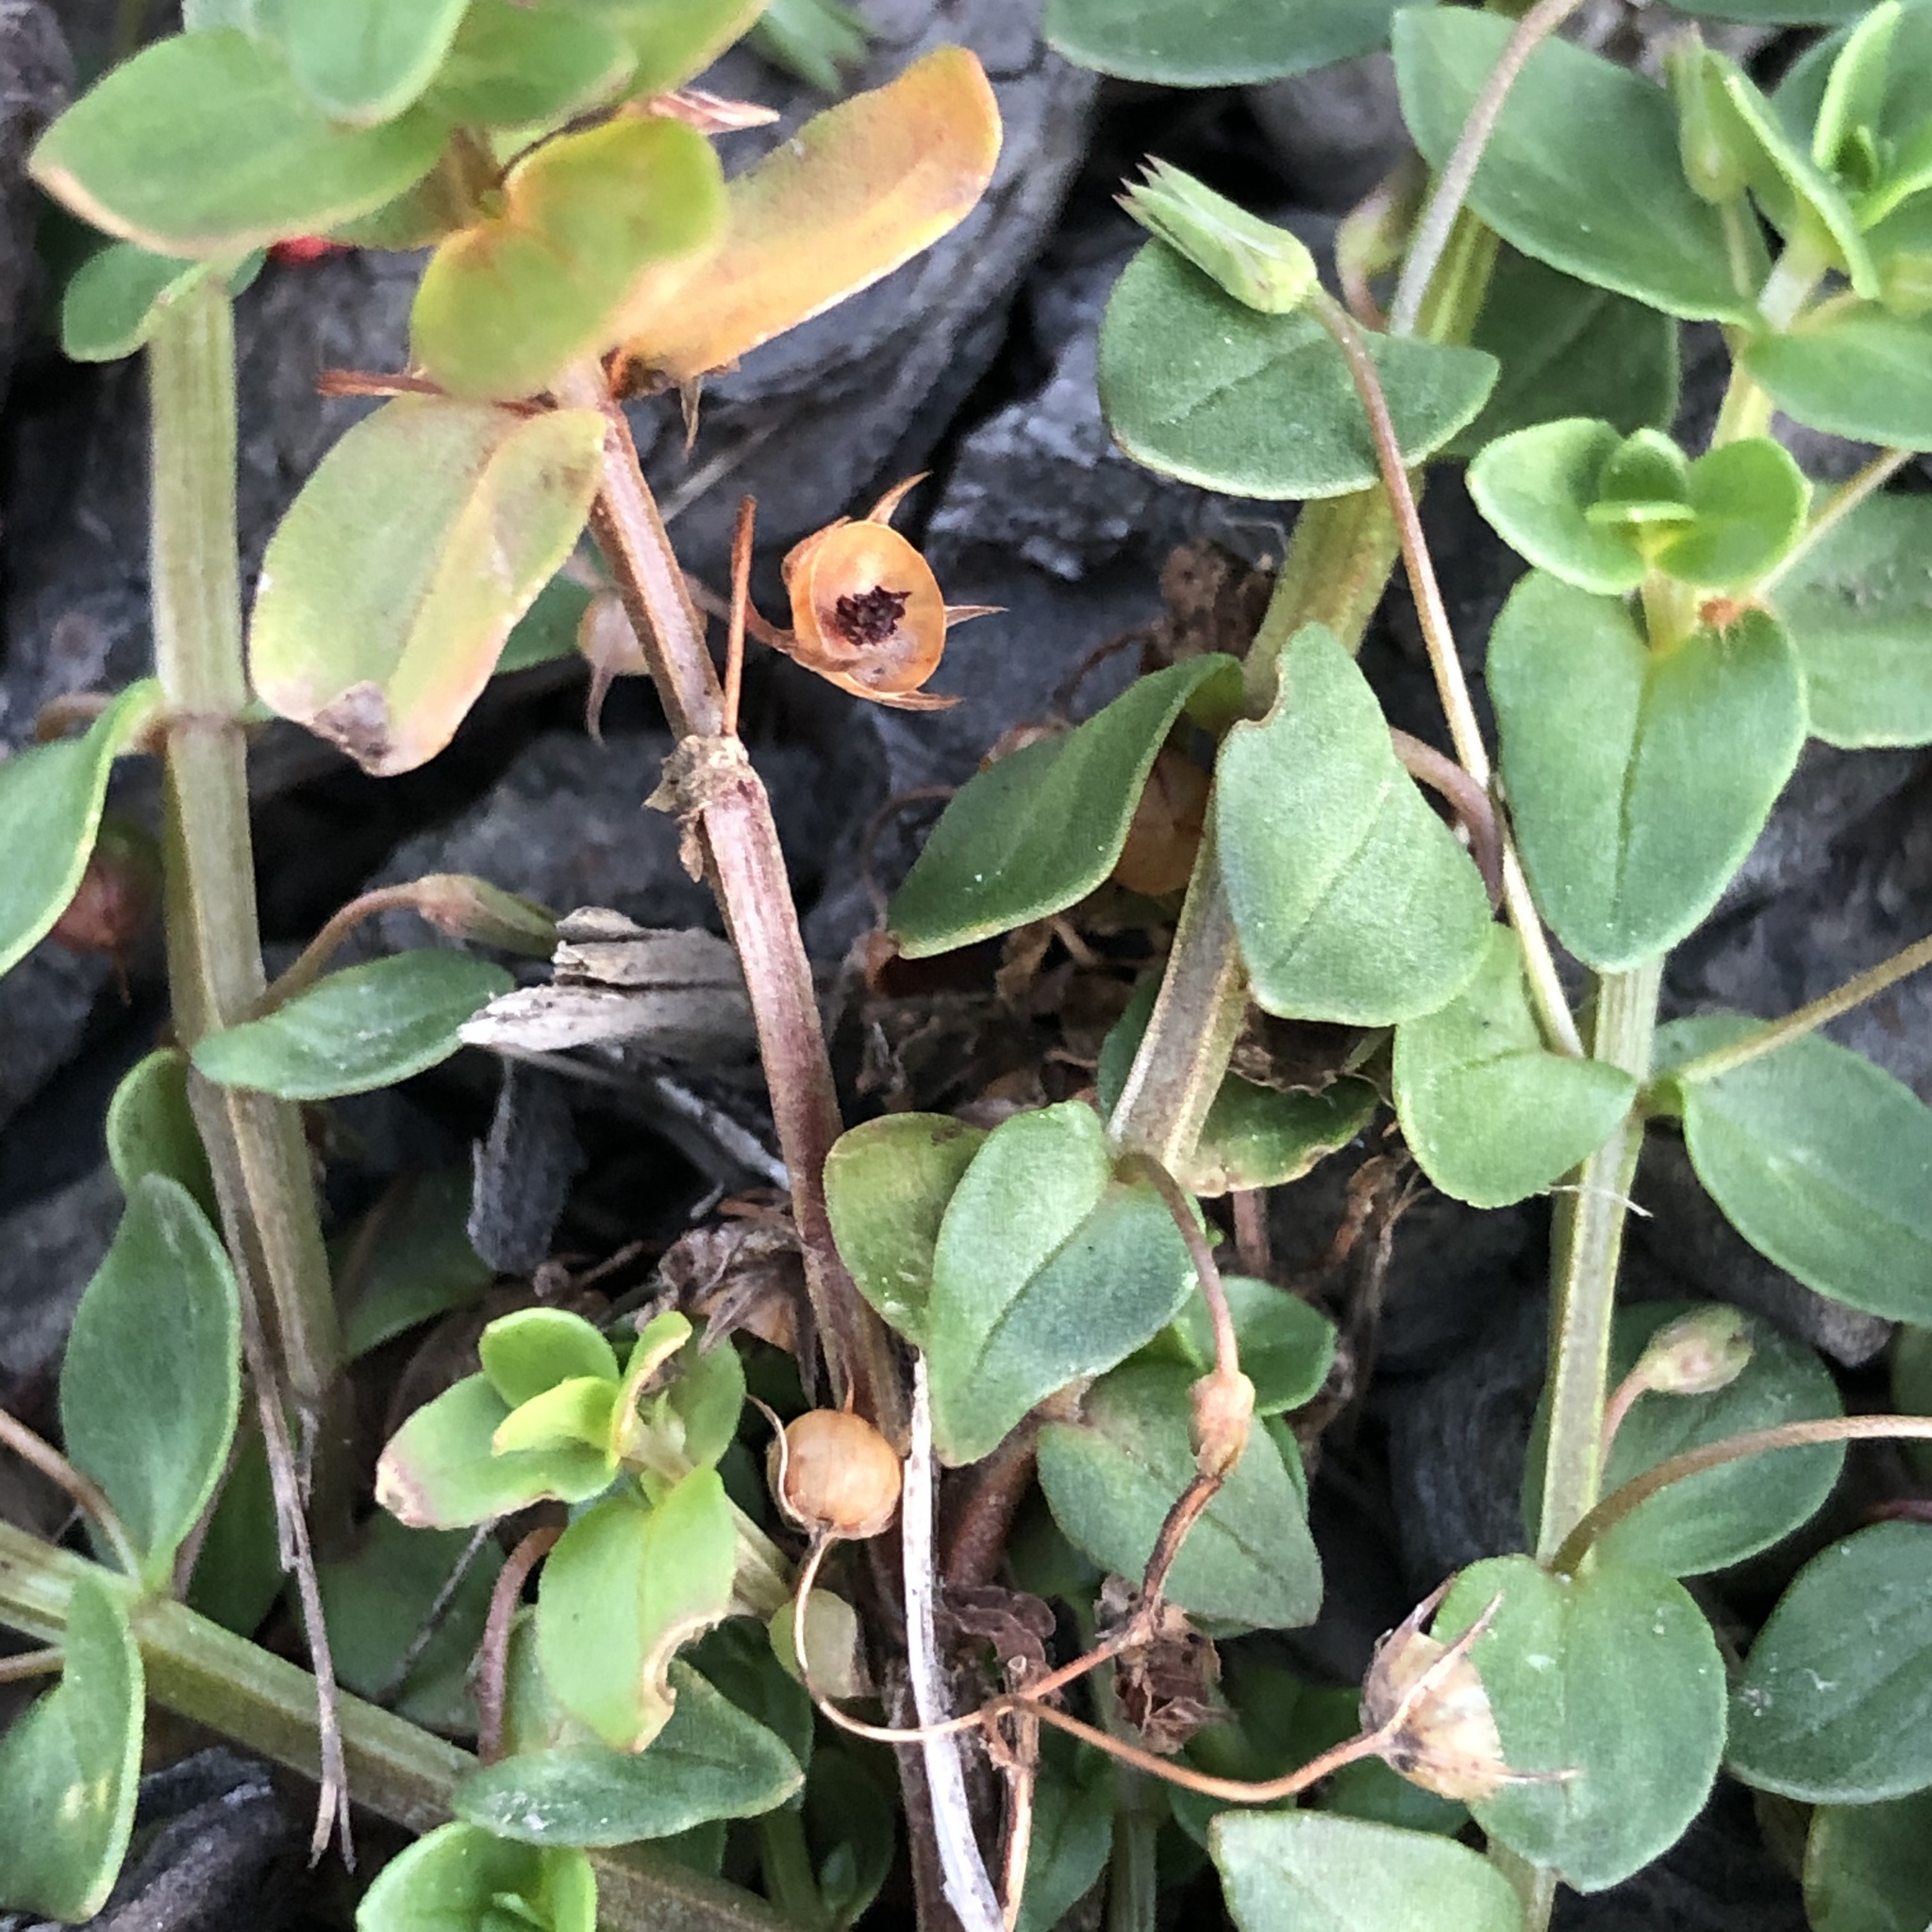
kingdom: Plantae
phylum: Tracheophyta
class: Magnoliopsida
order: Ericales
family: Primulaceae
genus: Lysimachia
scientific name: Lysimachia arvensis
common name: Scarlet pimpernel
